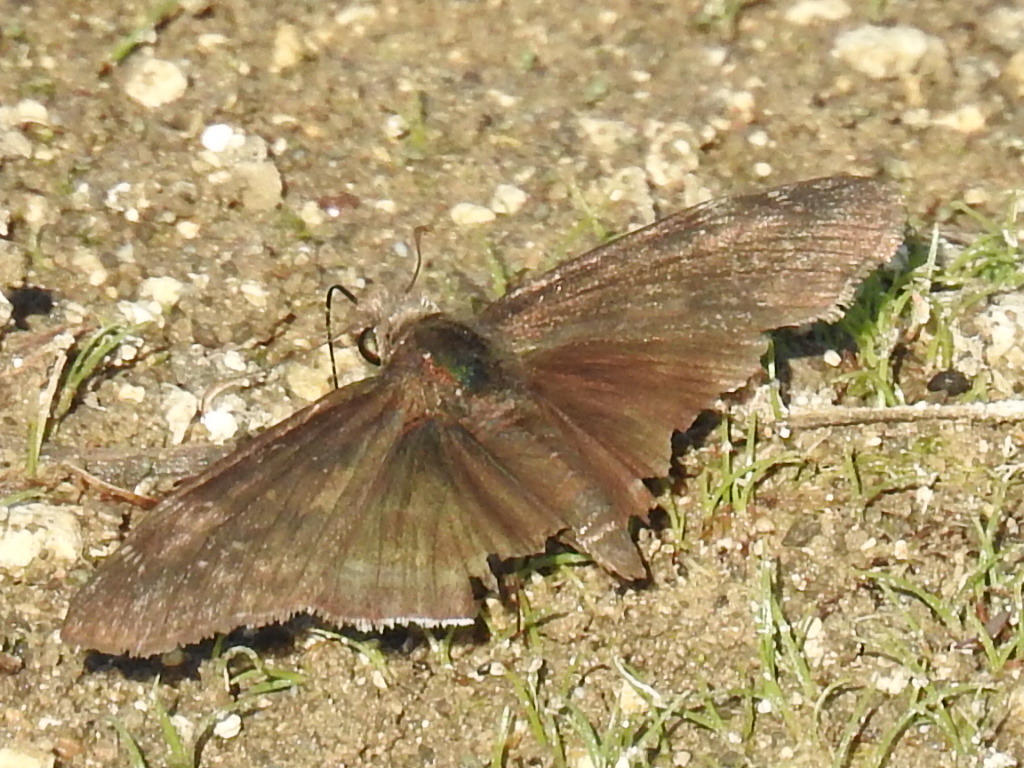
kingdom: Animalia
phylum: Arthropoda
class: Insecta
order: Lepidoptera
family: Hesperiidae
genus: Erynnis
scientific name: Erynnis funeralis
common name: Funereal duskywing
